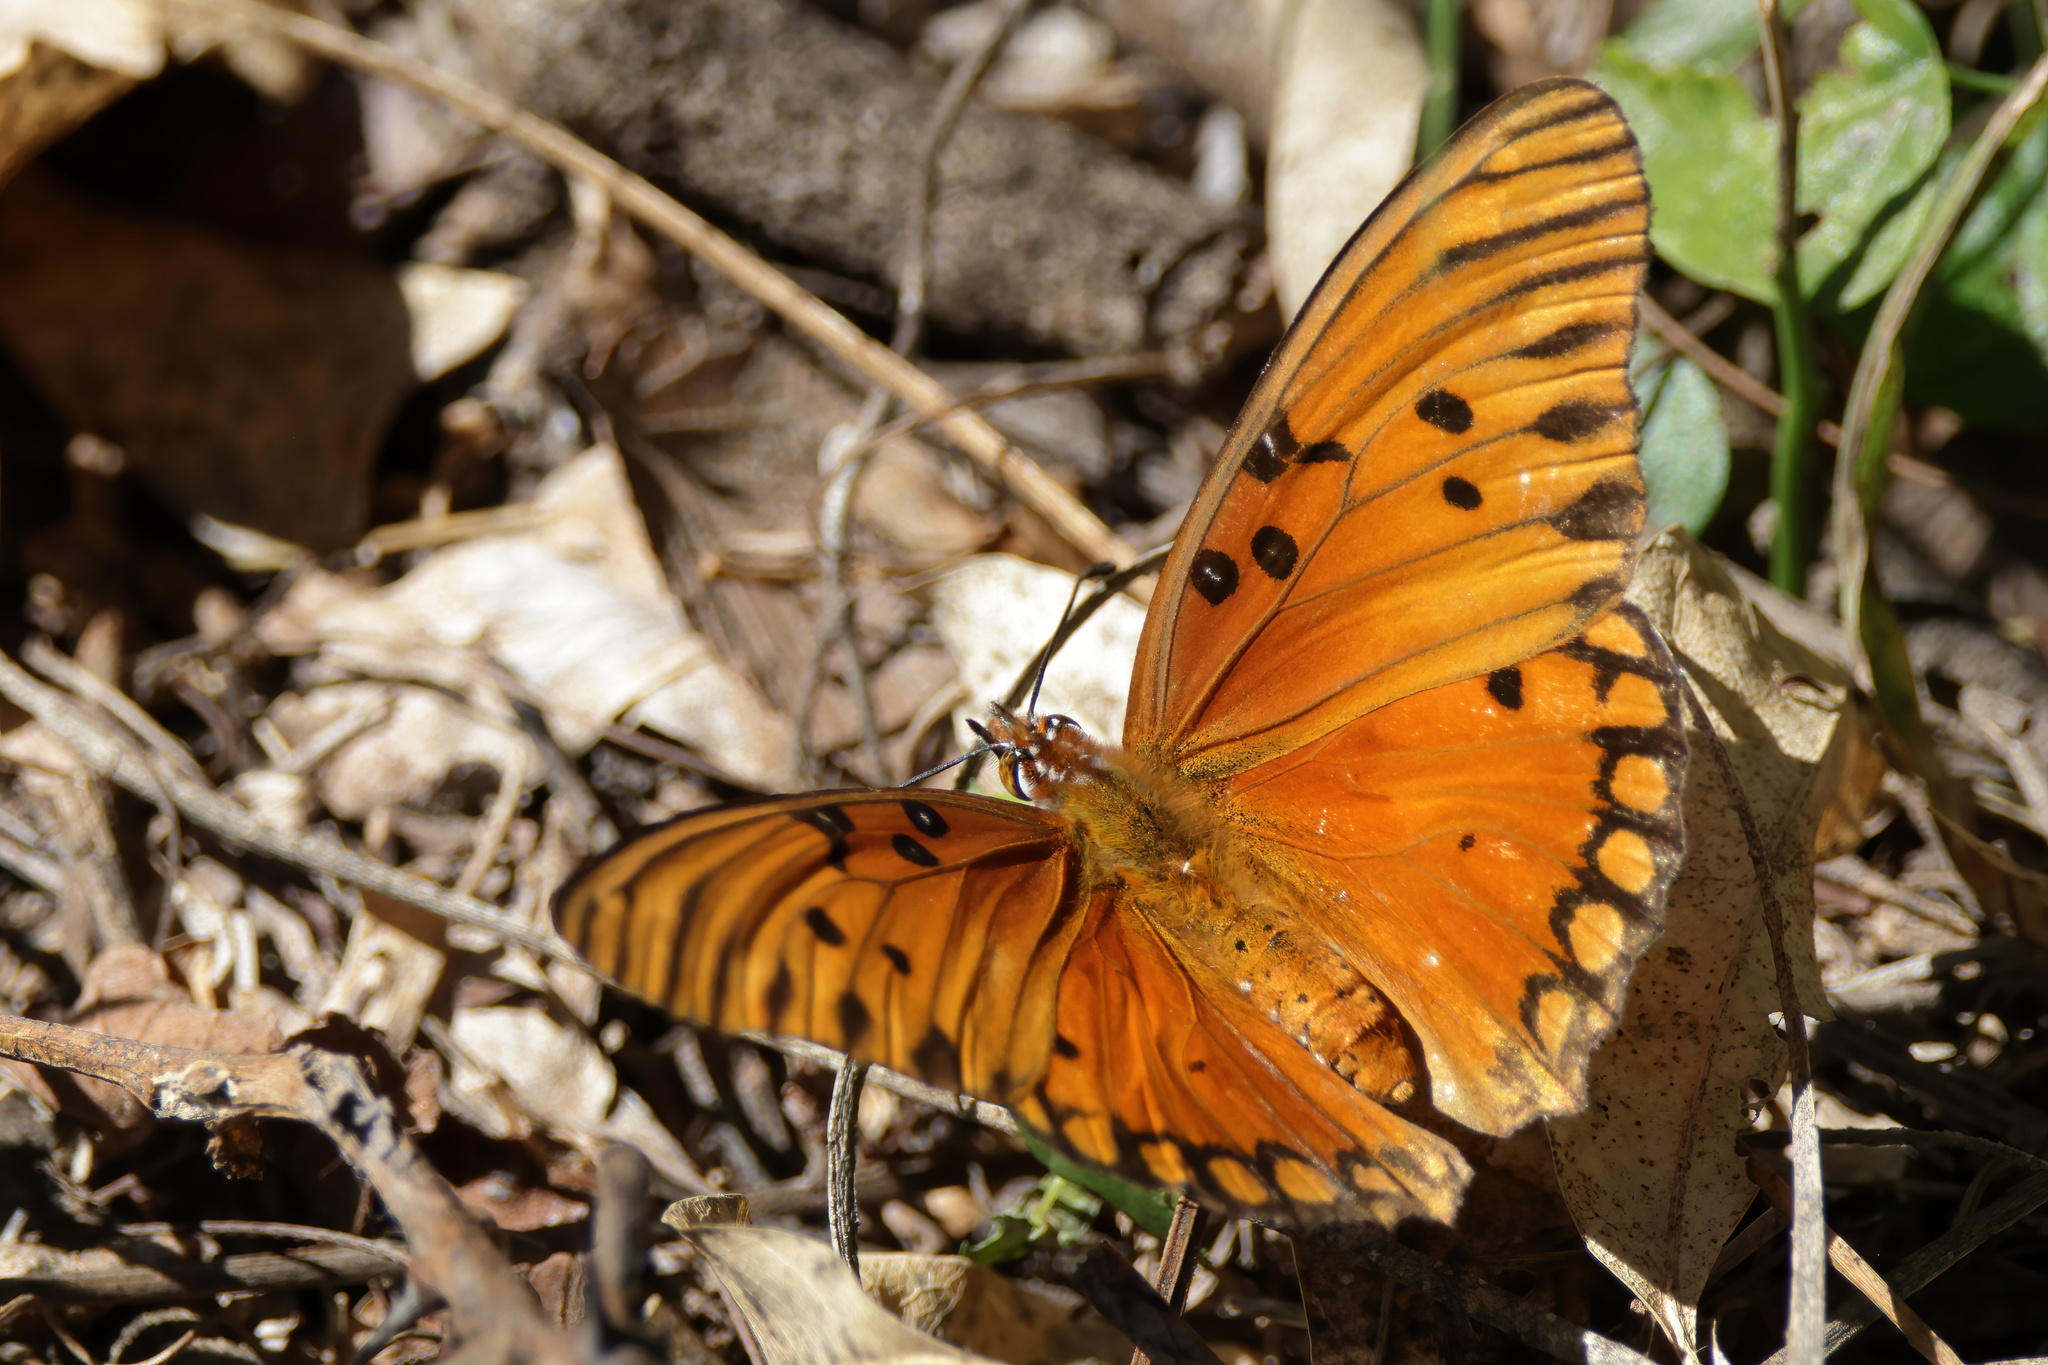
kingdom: Animalia
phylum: Arthropoda
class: Insecta
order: Lepidoptera
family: Nymphalidae
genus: Dione
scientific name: Dione vanillae
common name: Gulf fritillary
